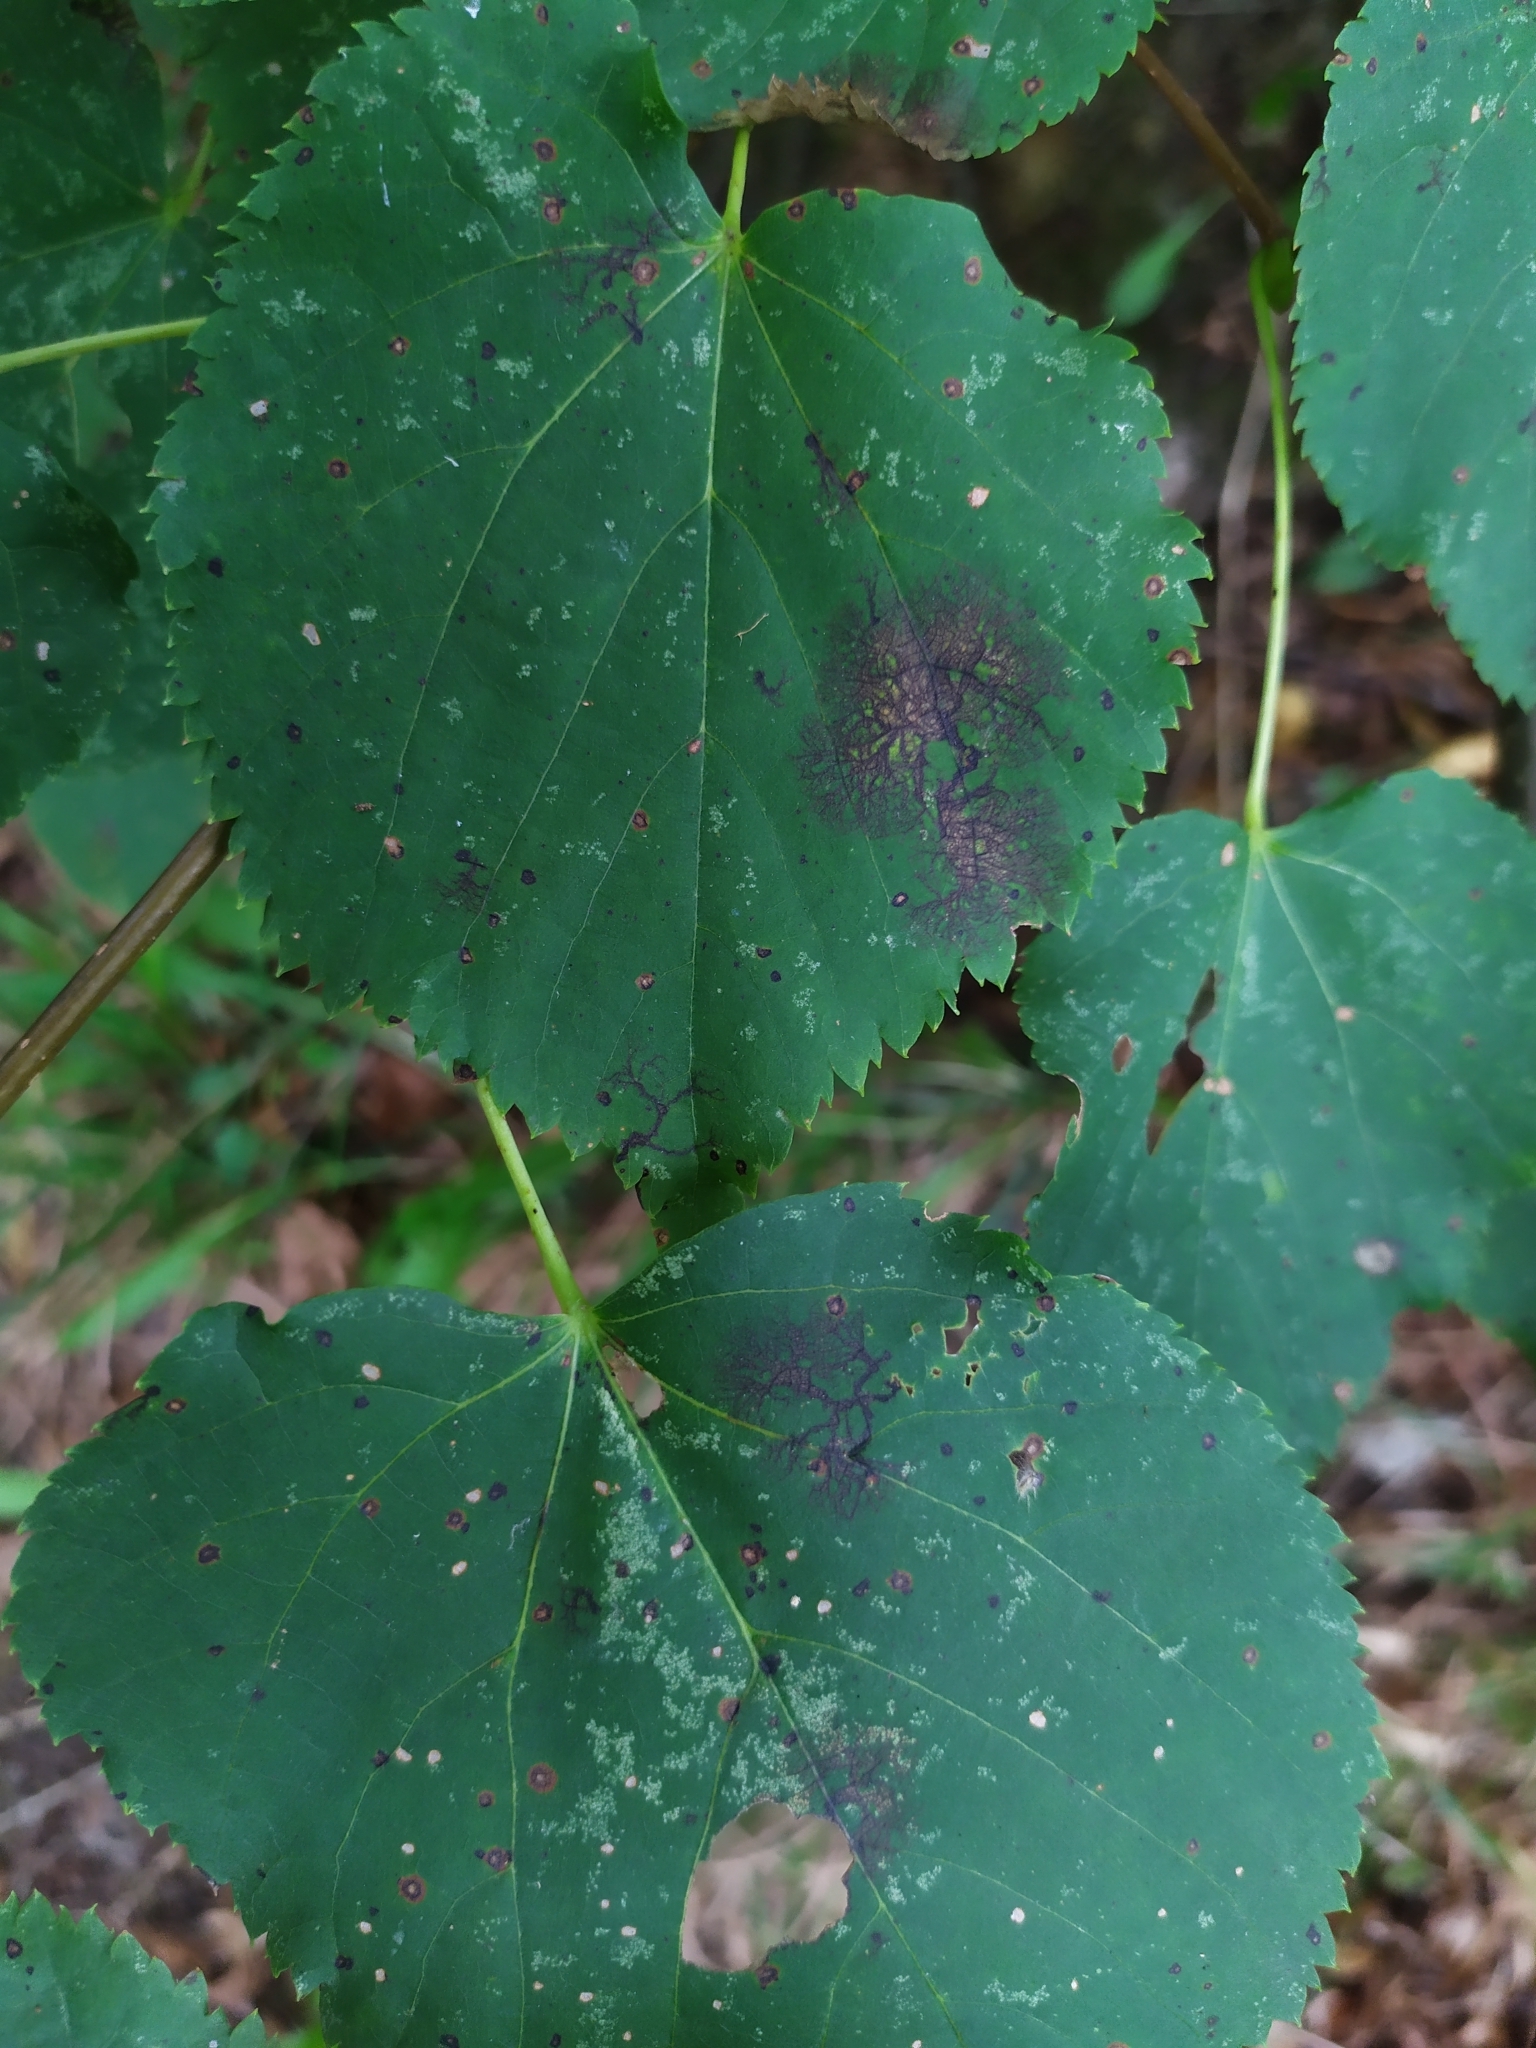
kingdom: Fungi
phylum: Ascomycota
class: Dothideomycetes
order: Pleosporales
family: Didymosphaeriaceae
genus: Paraconiothyrium
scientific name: Paraconiothyrium tiliae
